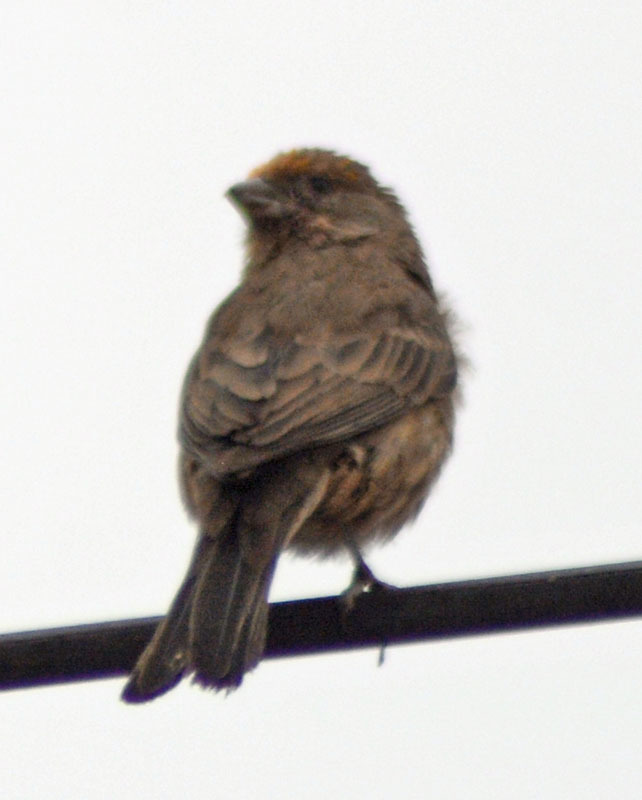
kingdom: Animalia
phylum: Chordata
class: Aves
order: Passeriformes
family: Fringillidae
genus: Haemorhous
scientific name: Haemorhous mexicanus
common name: House finch
